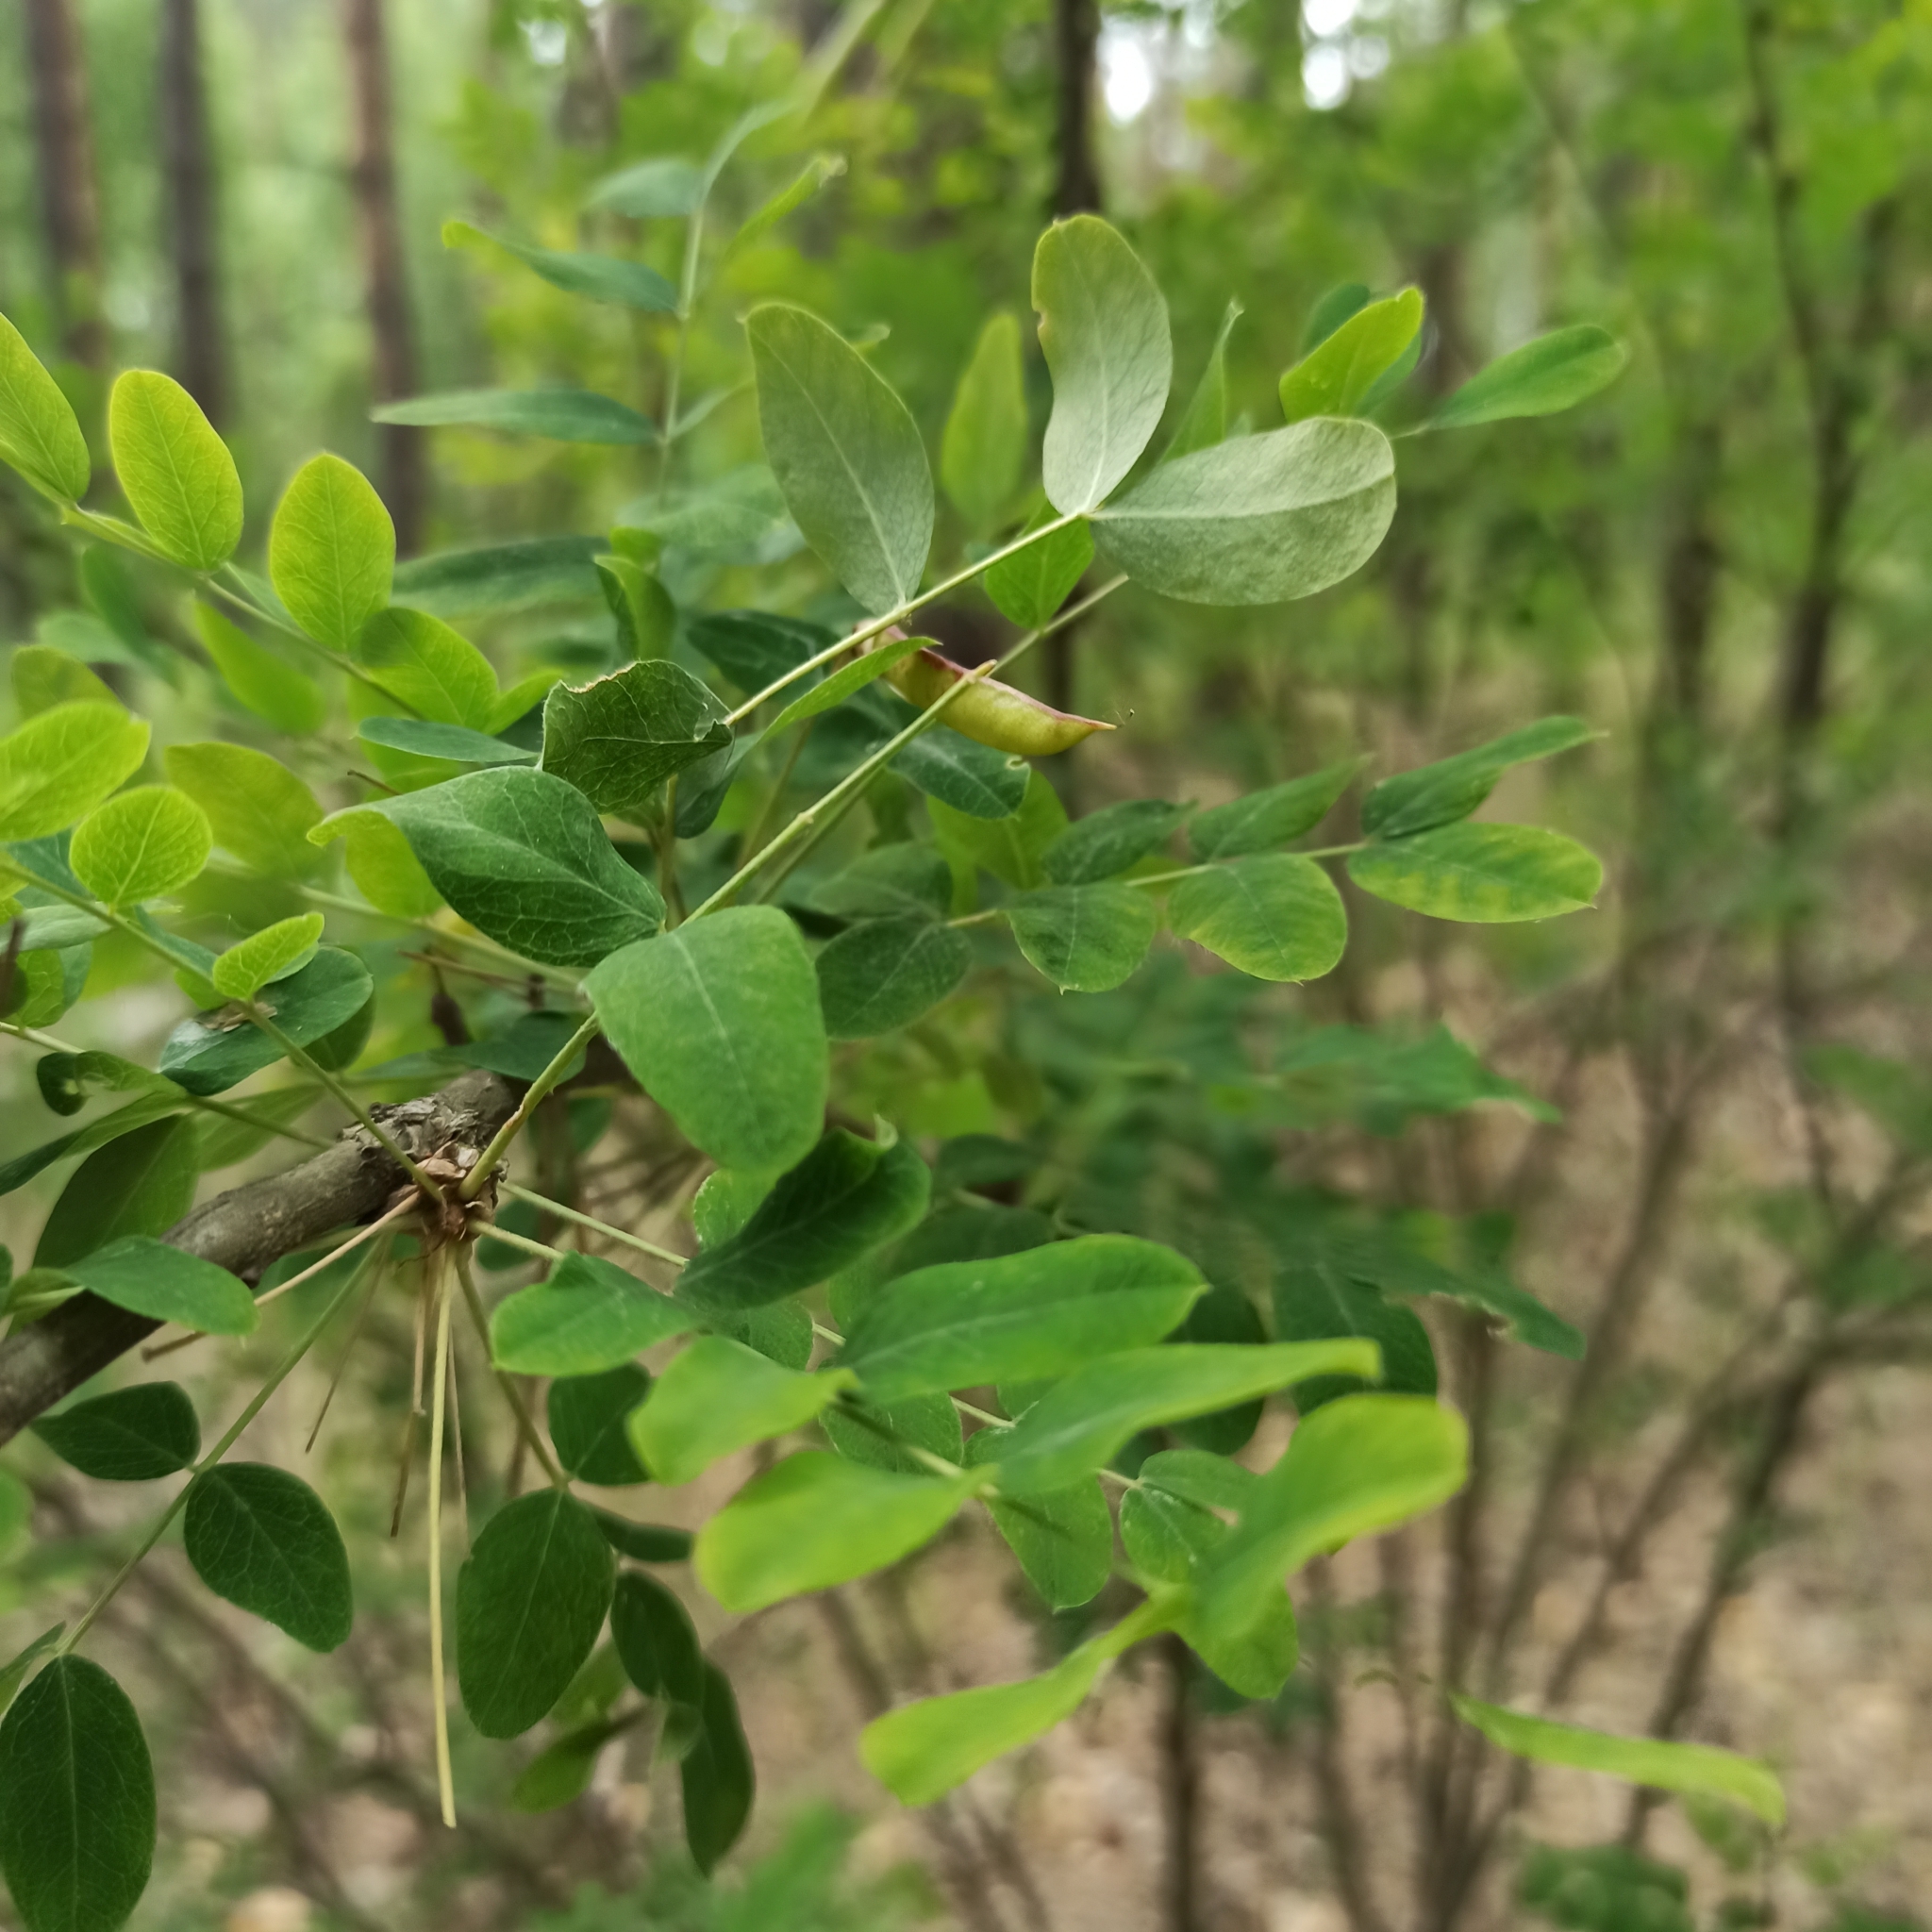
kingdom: Plantae
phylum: Tracheophyta
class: Magnoliopsida
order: Fabales
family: Fabaceae
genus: Caragana
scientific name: Caragana arborescens
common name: Siberian peashrub
